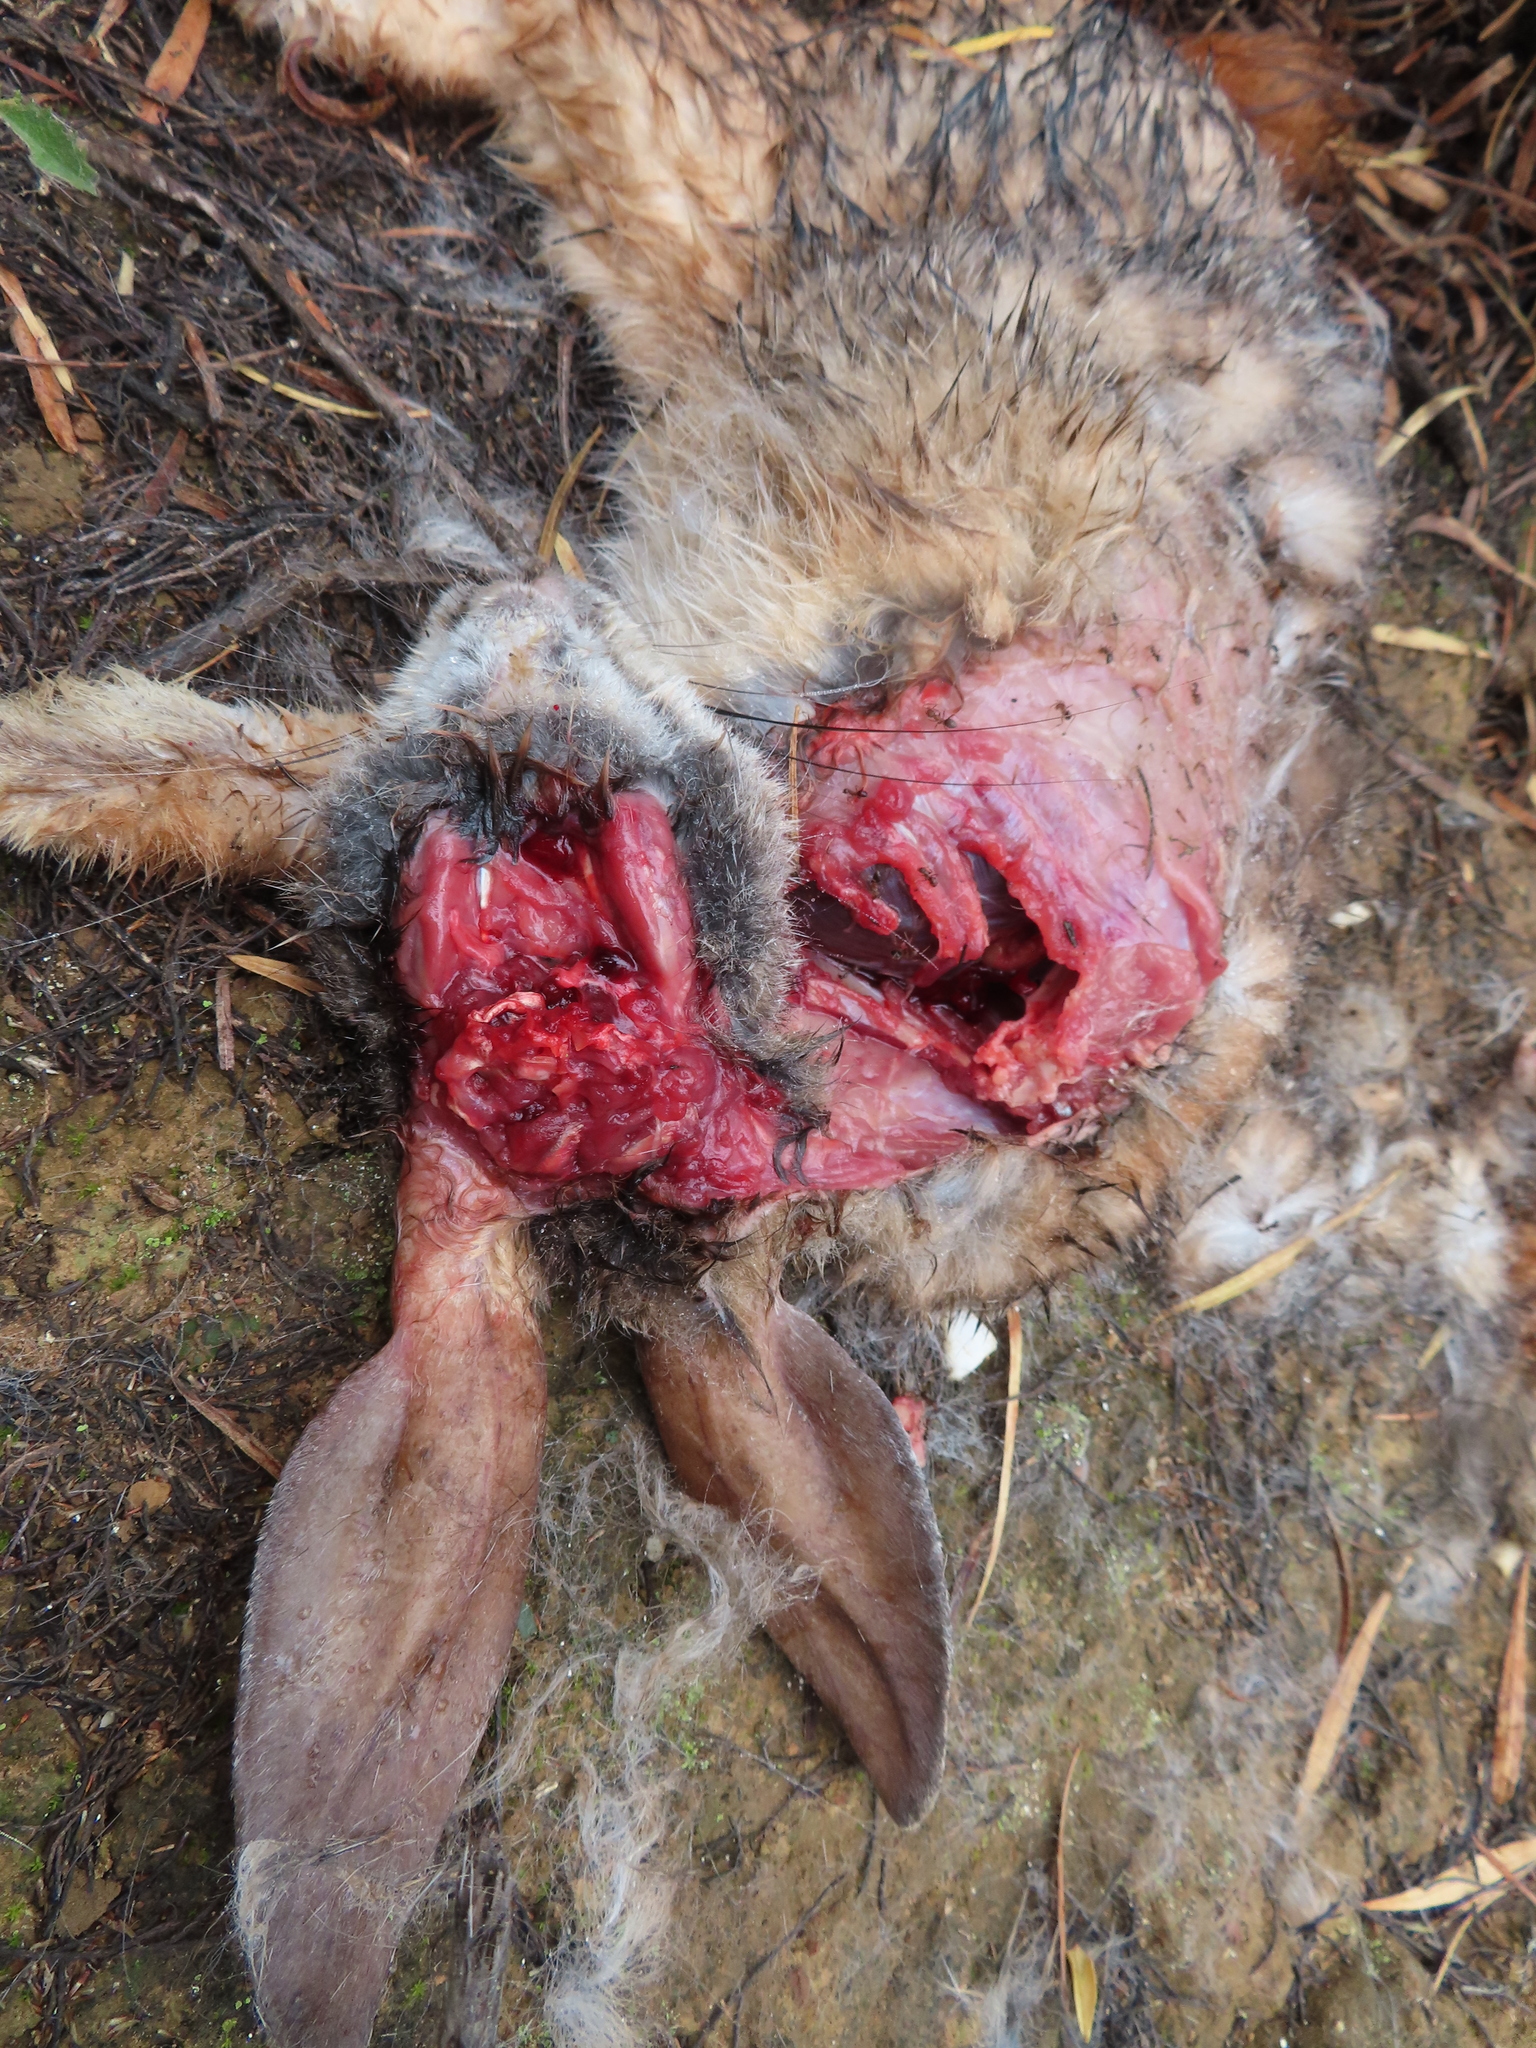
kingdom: Animalia
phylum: Chordata
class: Mammalia
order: Lagomorpha
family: Leporidae
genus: Lepus
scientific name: Lepus saxatilis
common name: Scrub hare
